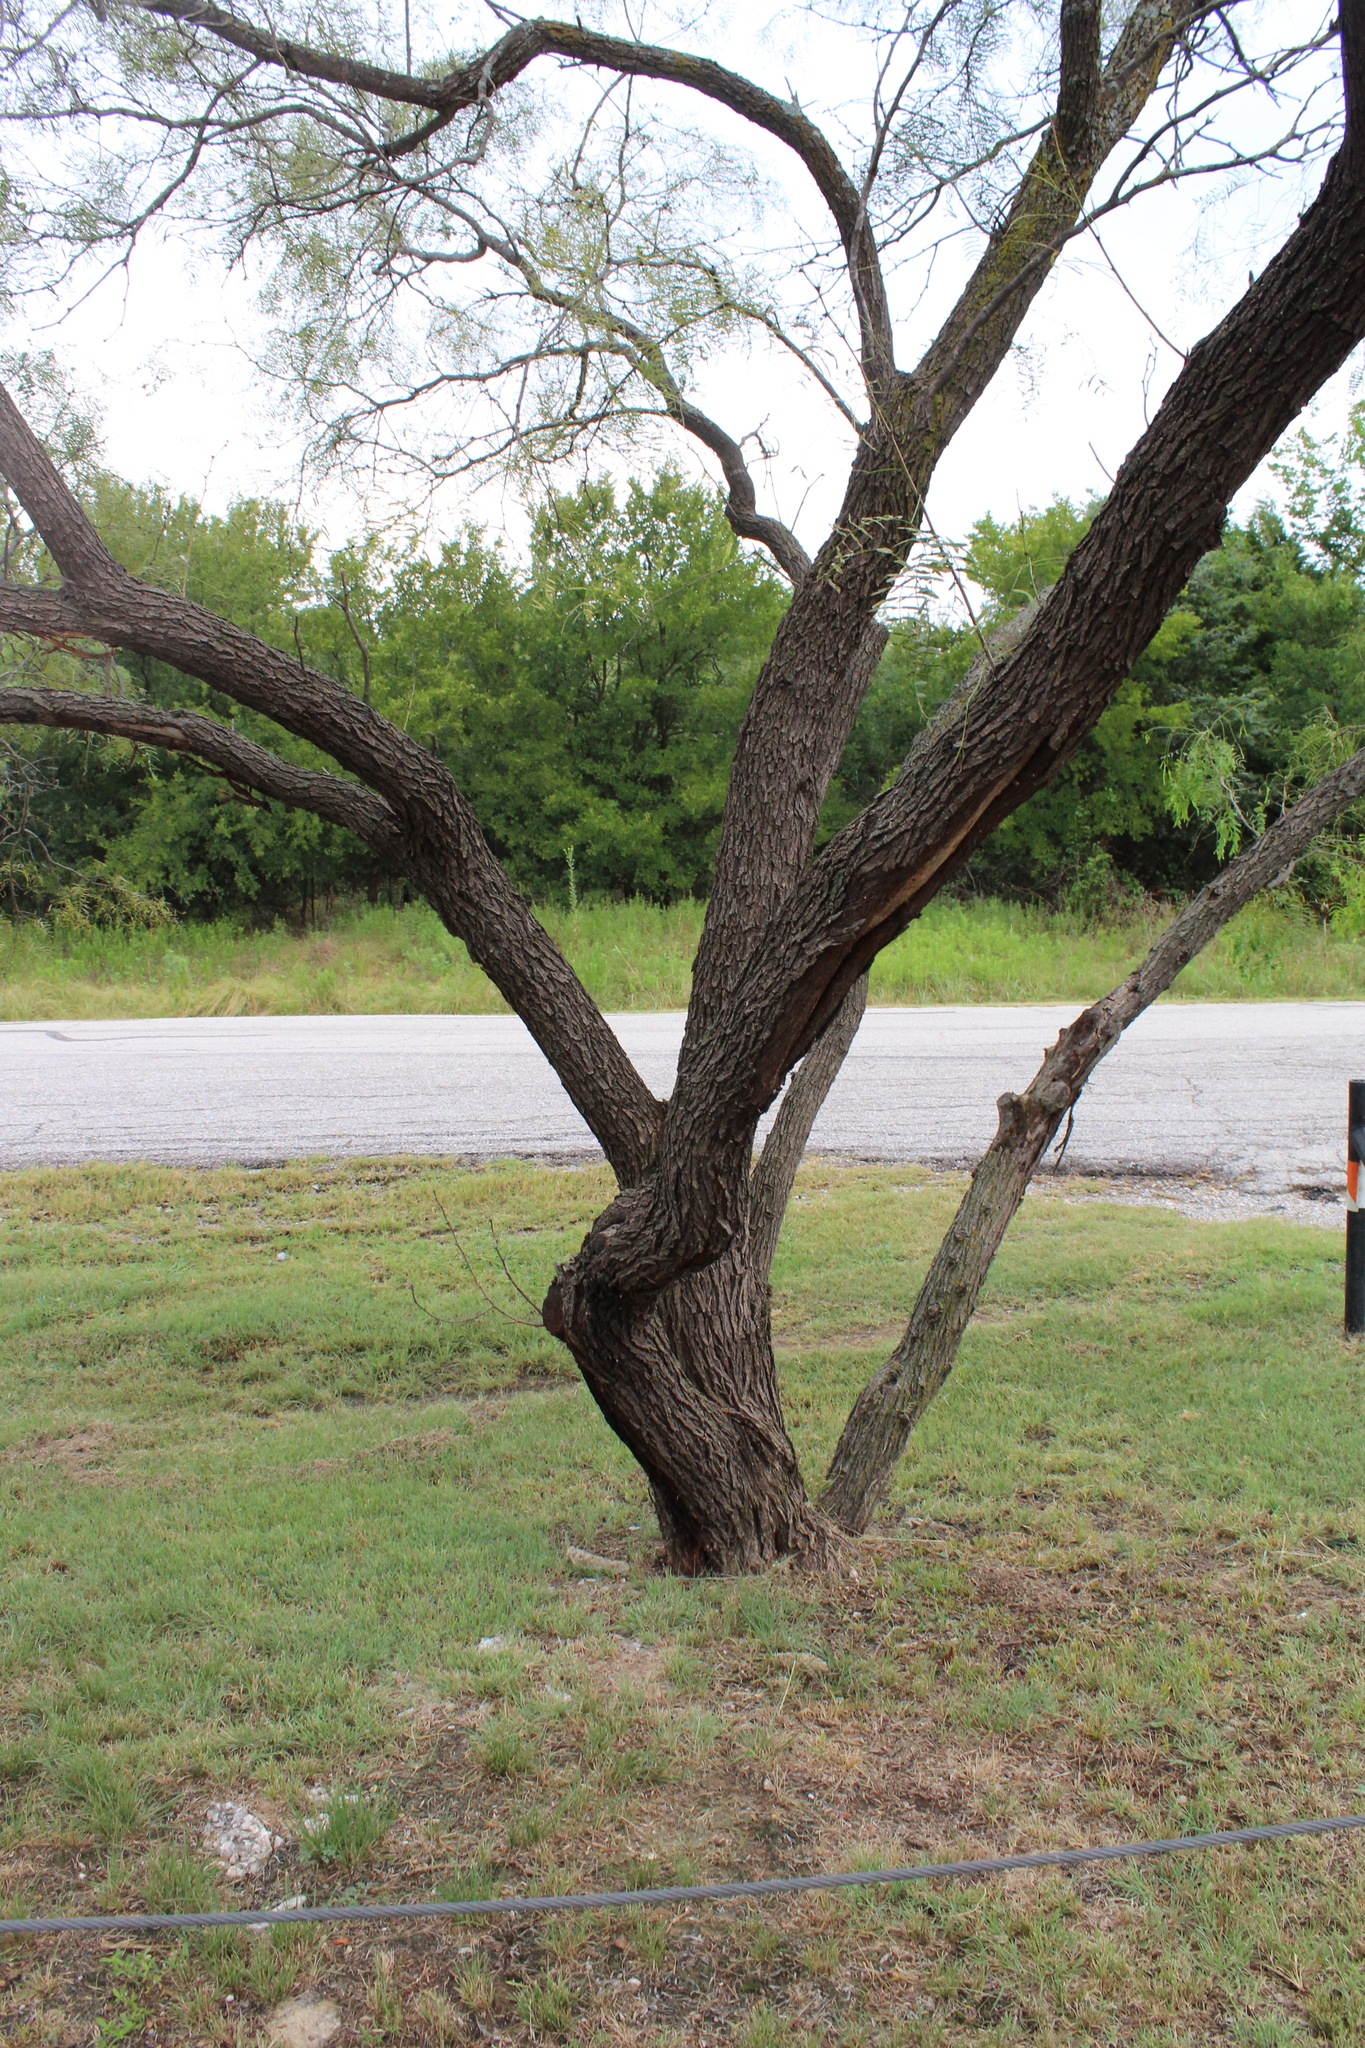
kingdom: Plantae
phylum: Tracheophyta
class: Magnoliopsida
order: Fabales
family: Fabaceae
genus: Prosopis
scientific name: Prosopis glandulosa
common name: Honey mesquite
